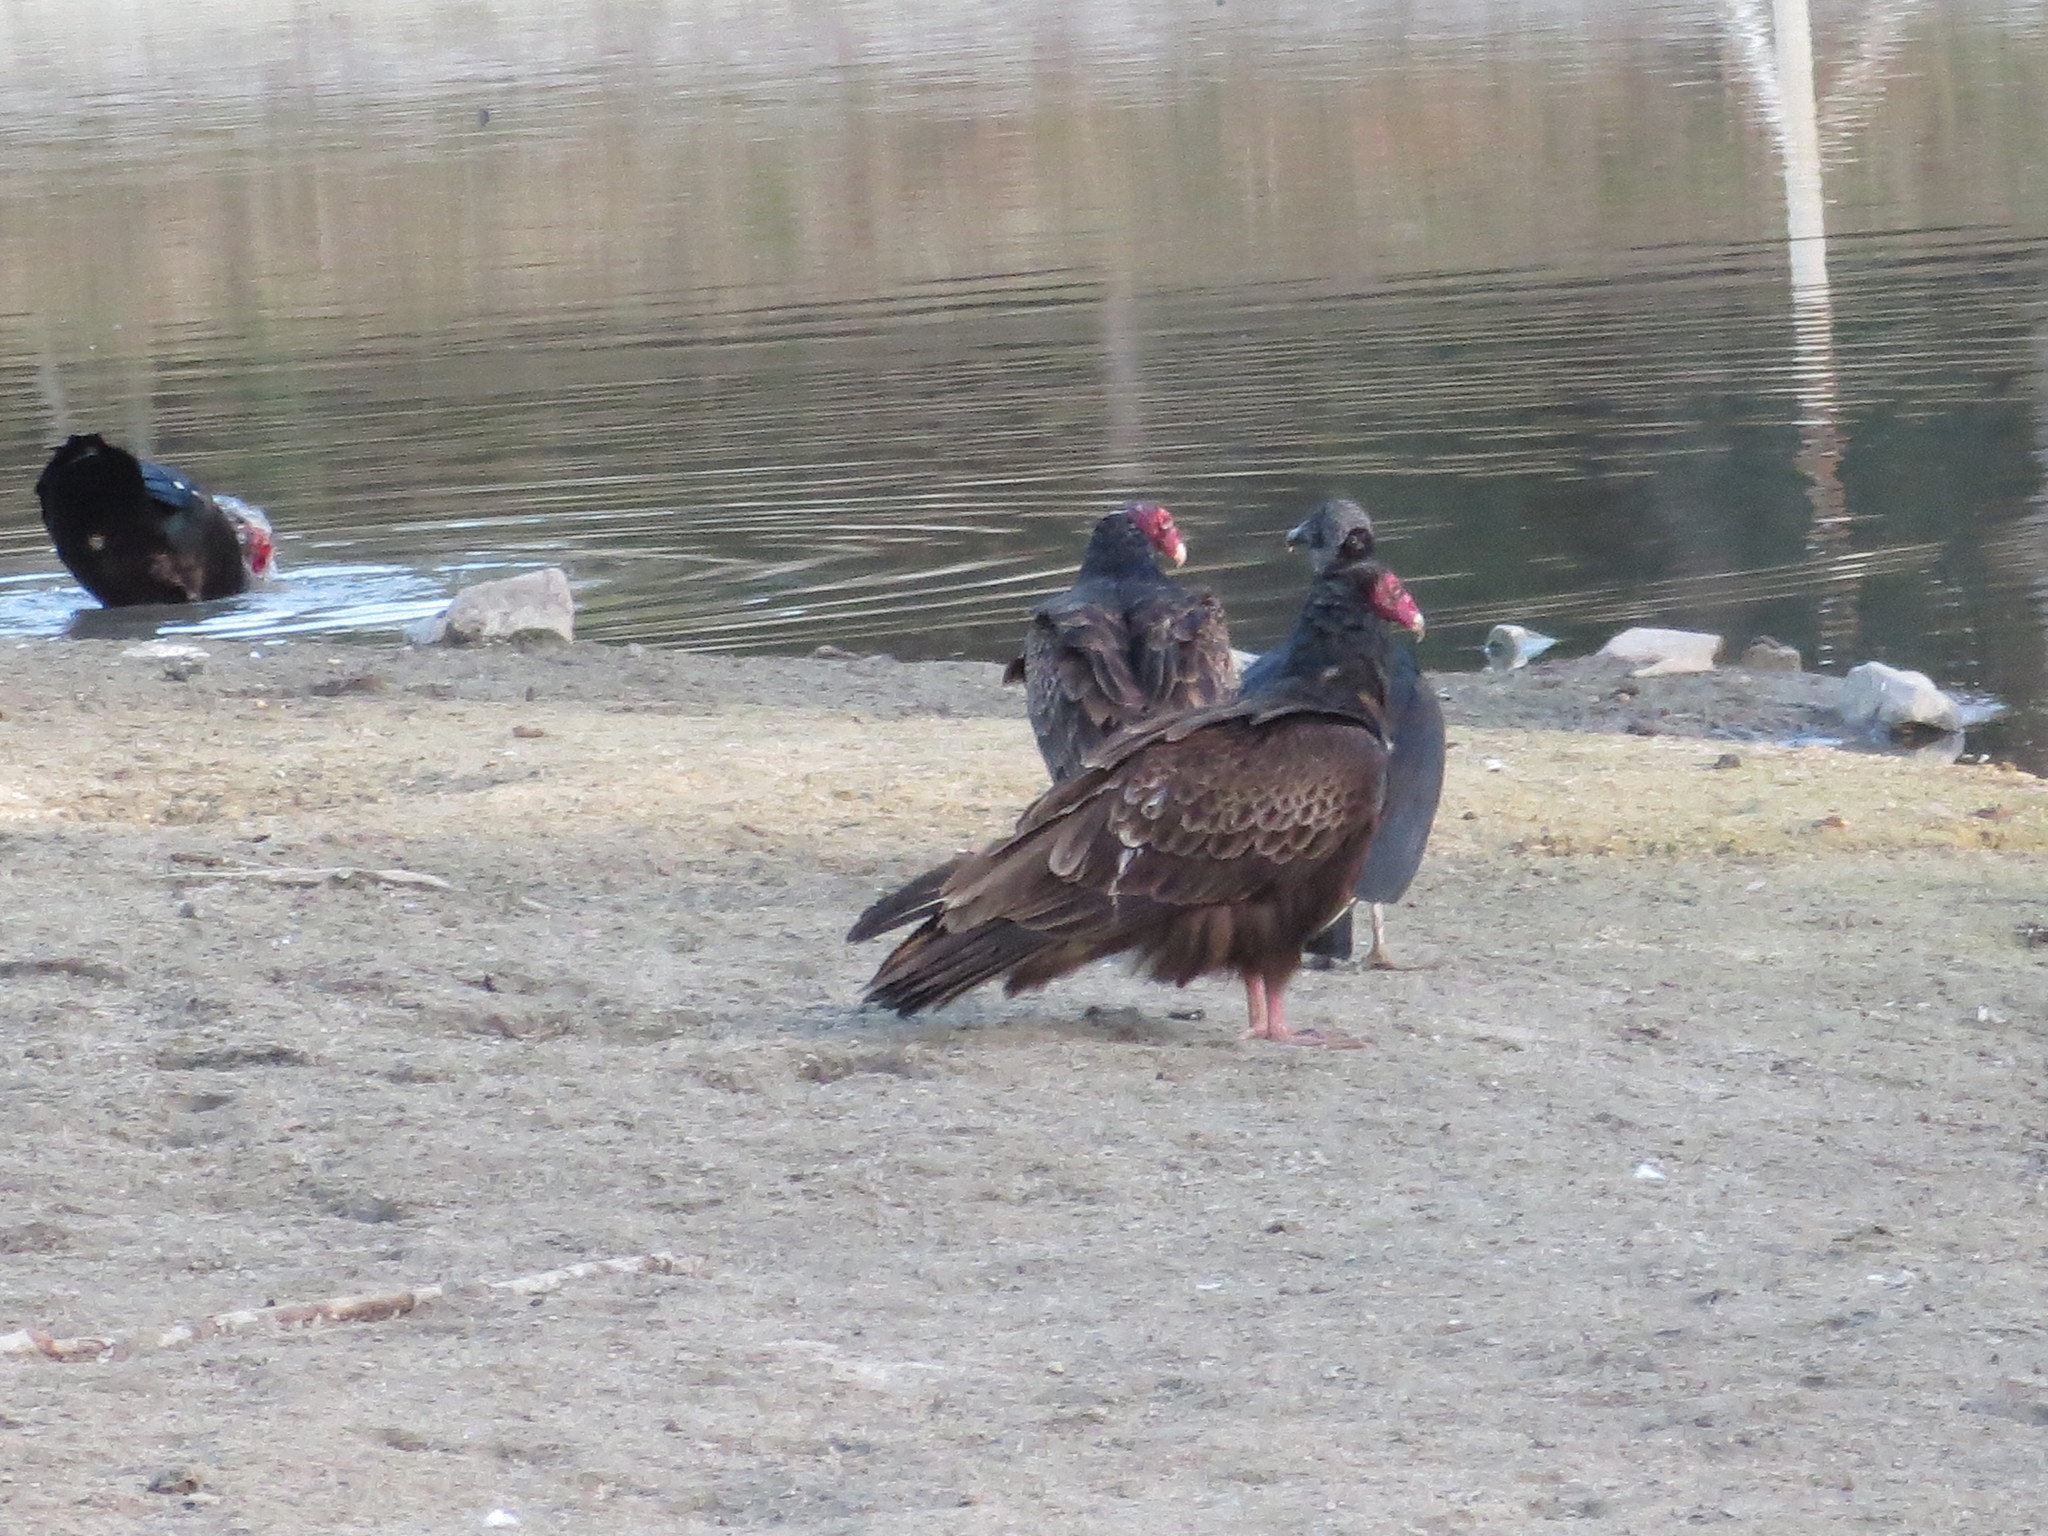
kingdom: Animalia
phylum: Chordata
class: Aves
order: Accipitriformes
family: Cathartidae
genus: Cathartes
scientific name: Cathartes aura
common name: Turkey vulture
